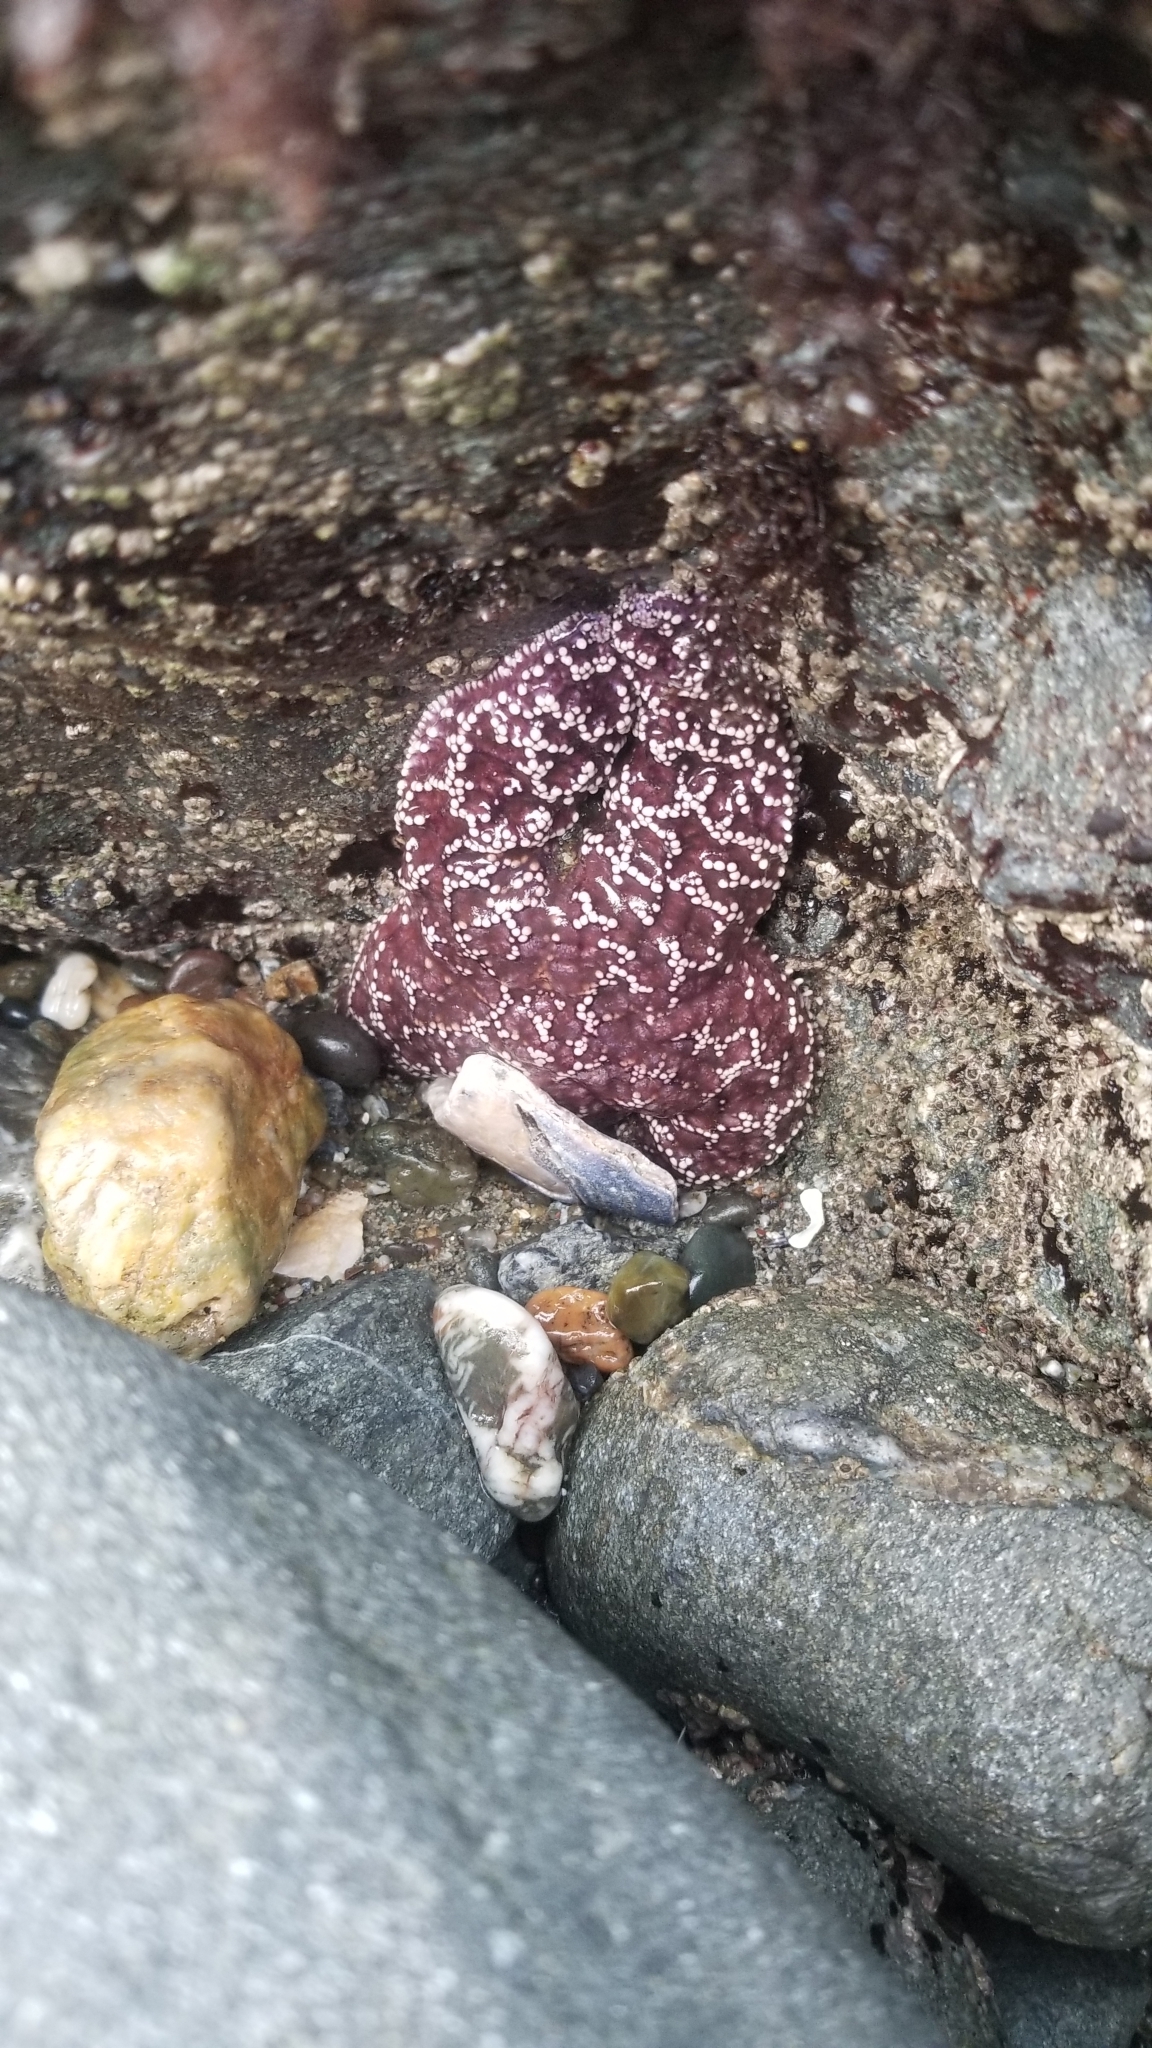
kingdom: Animalia
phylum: Echinodermata
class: Asteroidea
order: Forcipulatida
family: Asteriidae
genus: Pisaster
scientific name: Pisaster ochraceus
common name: Ochre stars
